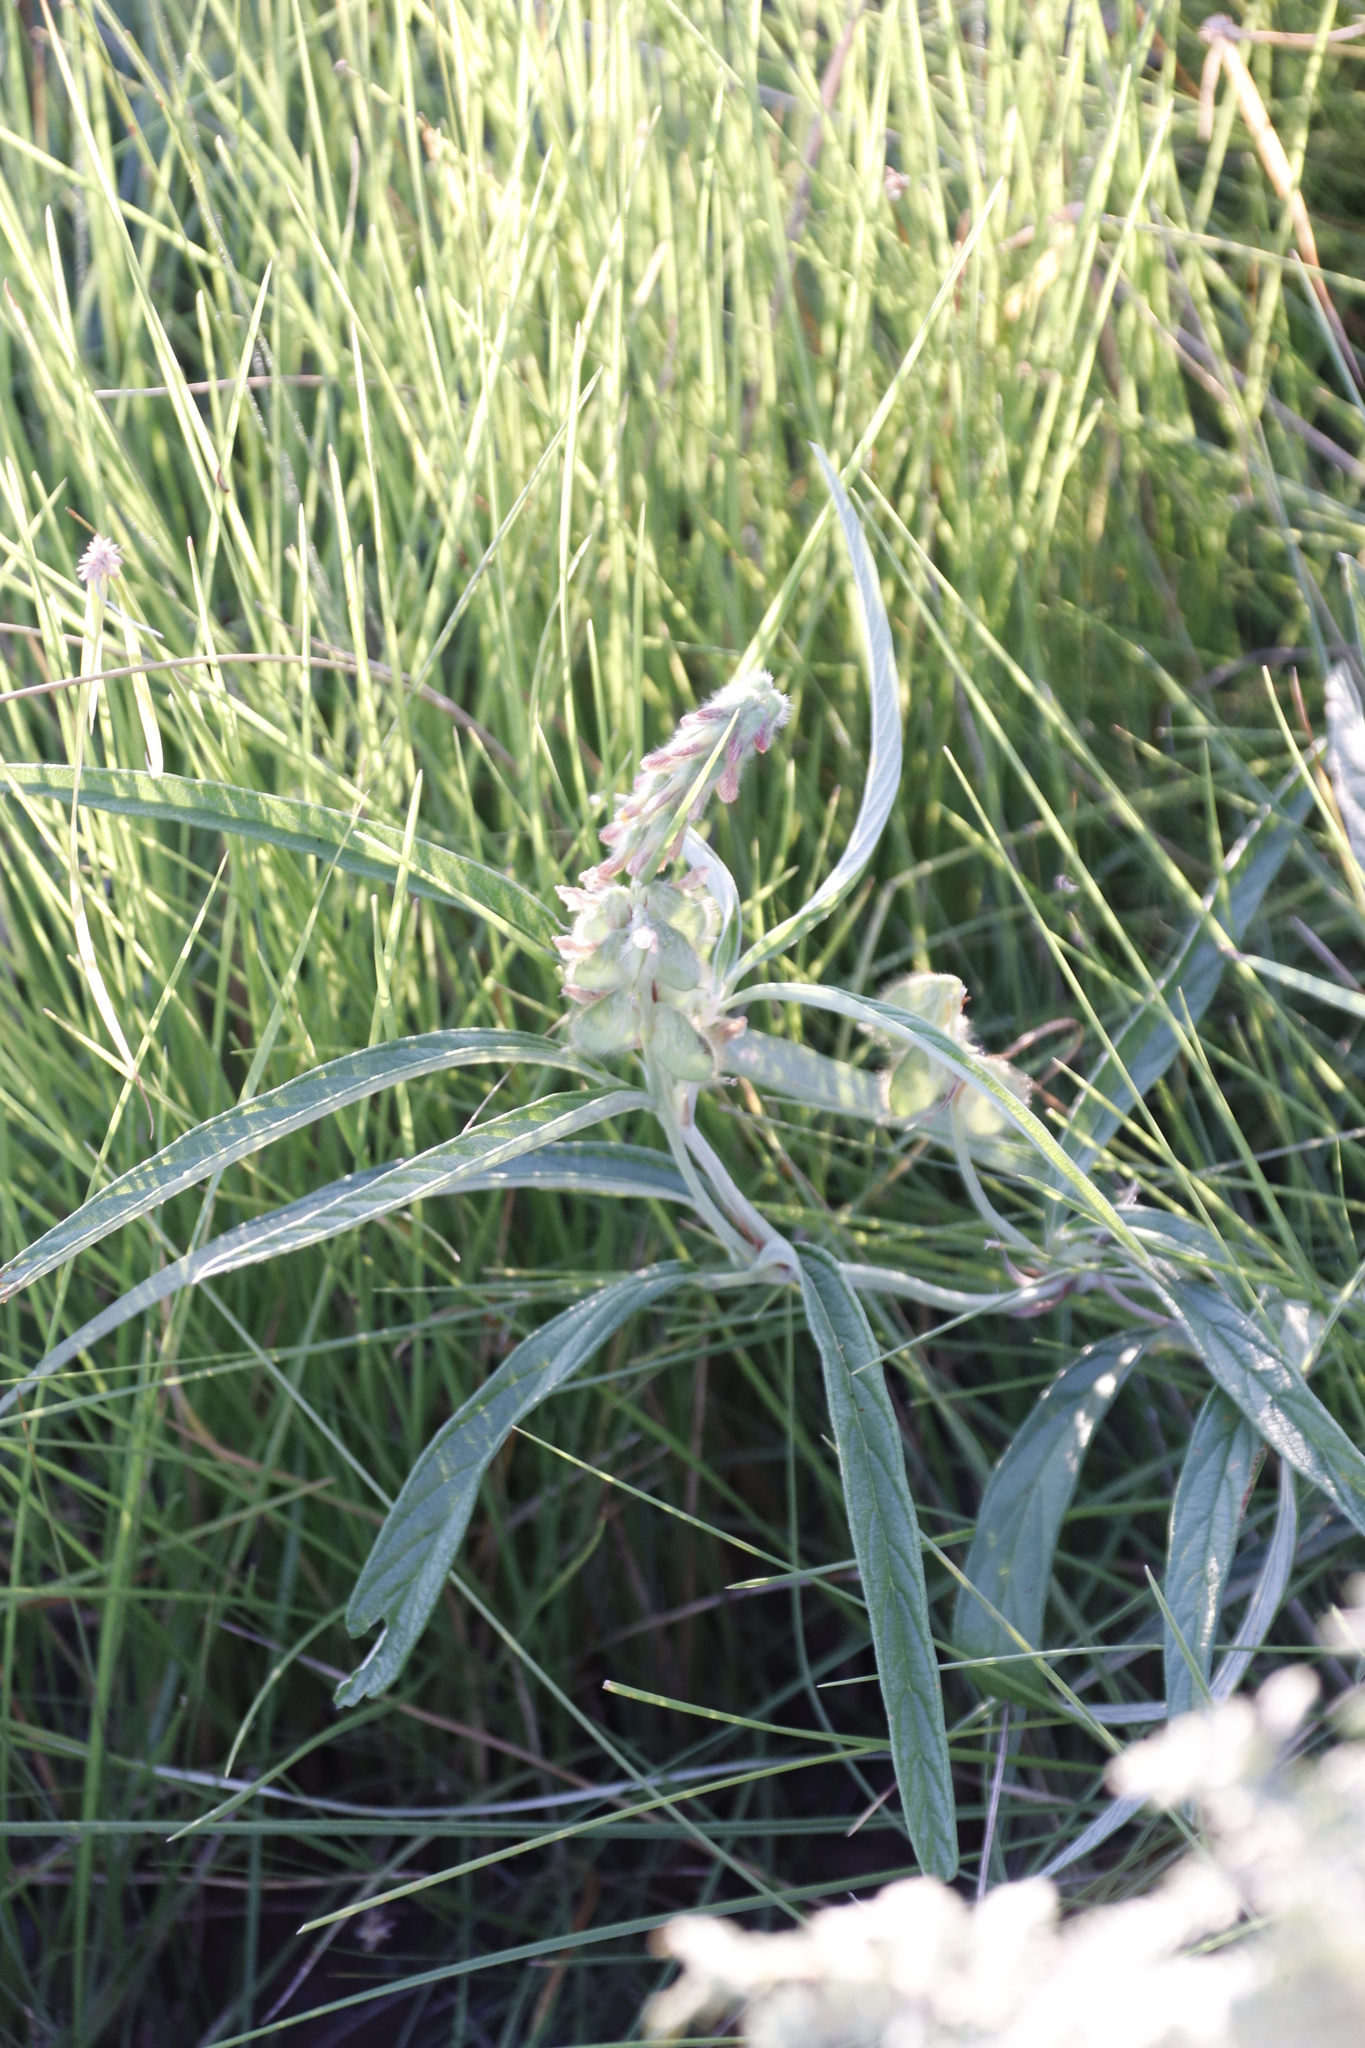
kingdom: Plantae
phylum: Tracheophyta
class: Magnoliopsida
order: Fabales
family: Fabaceae
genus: Eriosema
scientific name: Eriosema salignum
